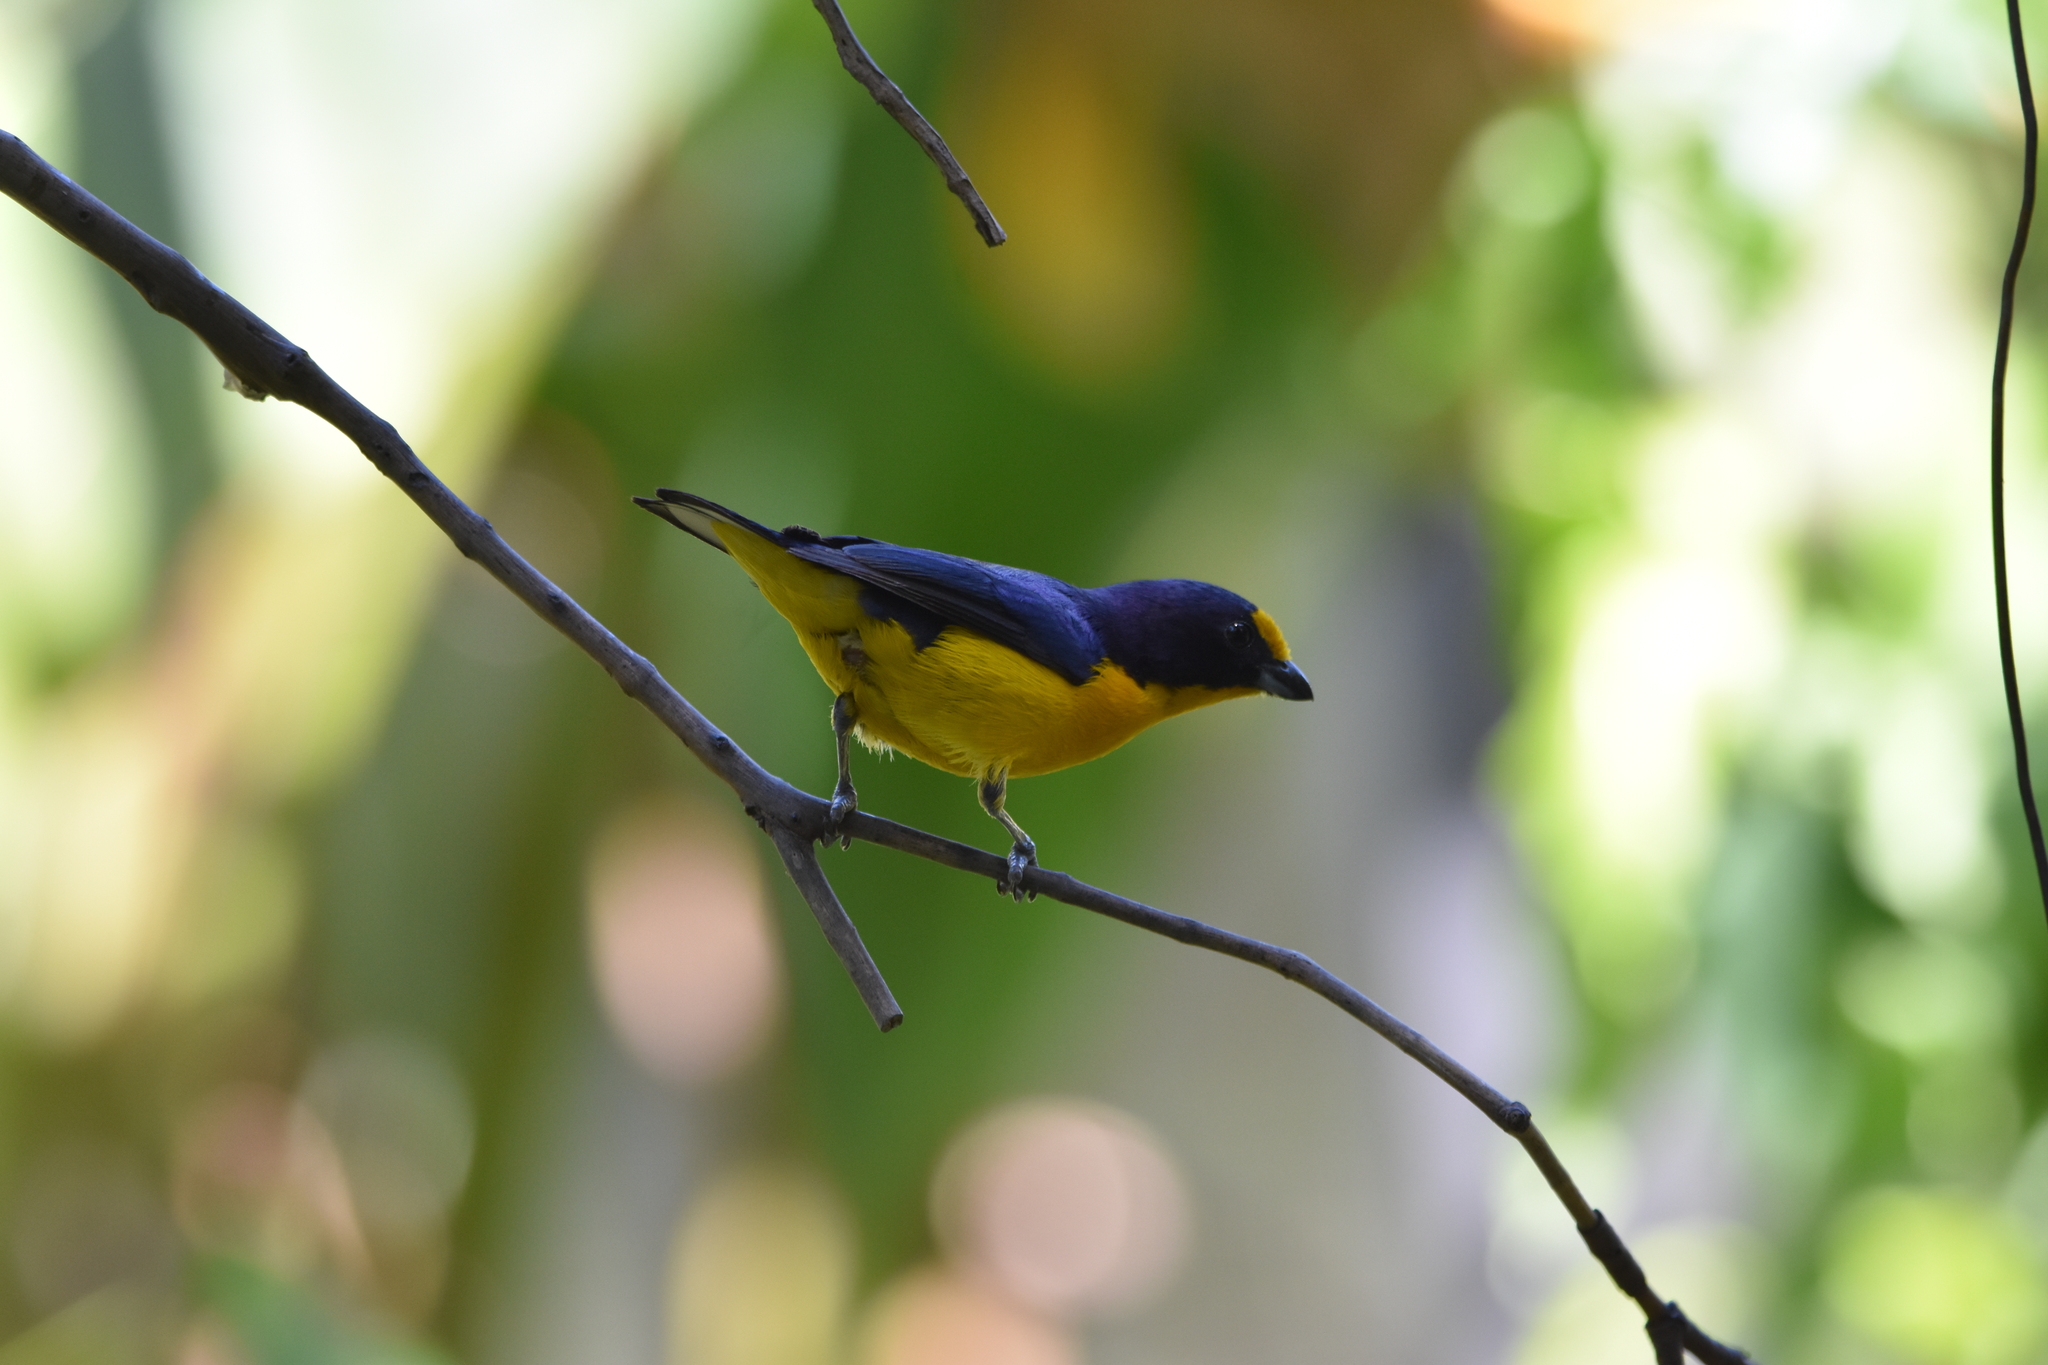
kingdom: Animalia
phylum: Chordata
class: Aves
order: Passeriformes
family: Fringillidae
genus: Euphonia
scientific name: Euphonia violacea
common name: Violaceous euphonia
